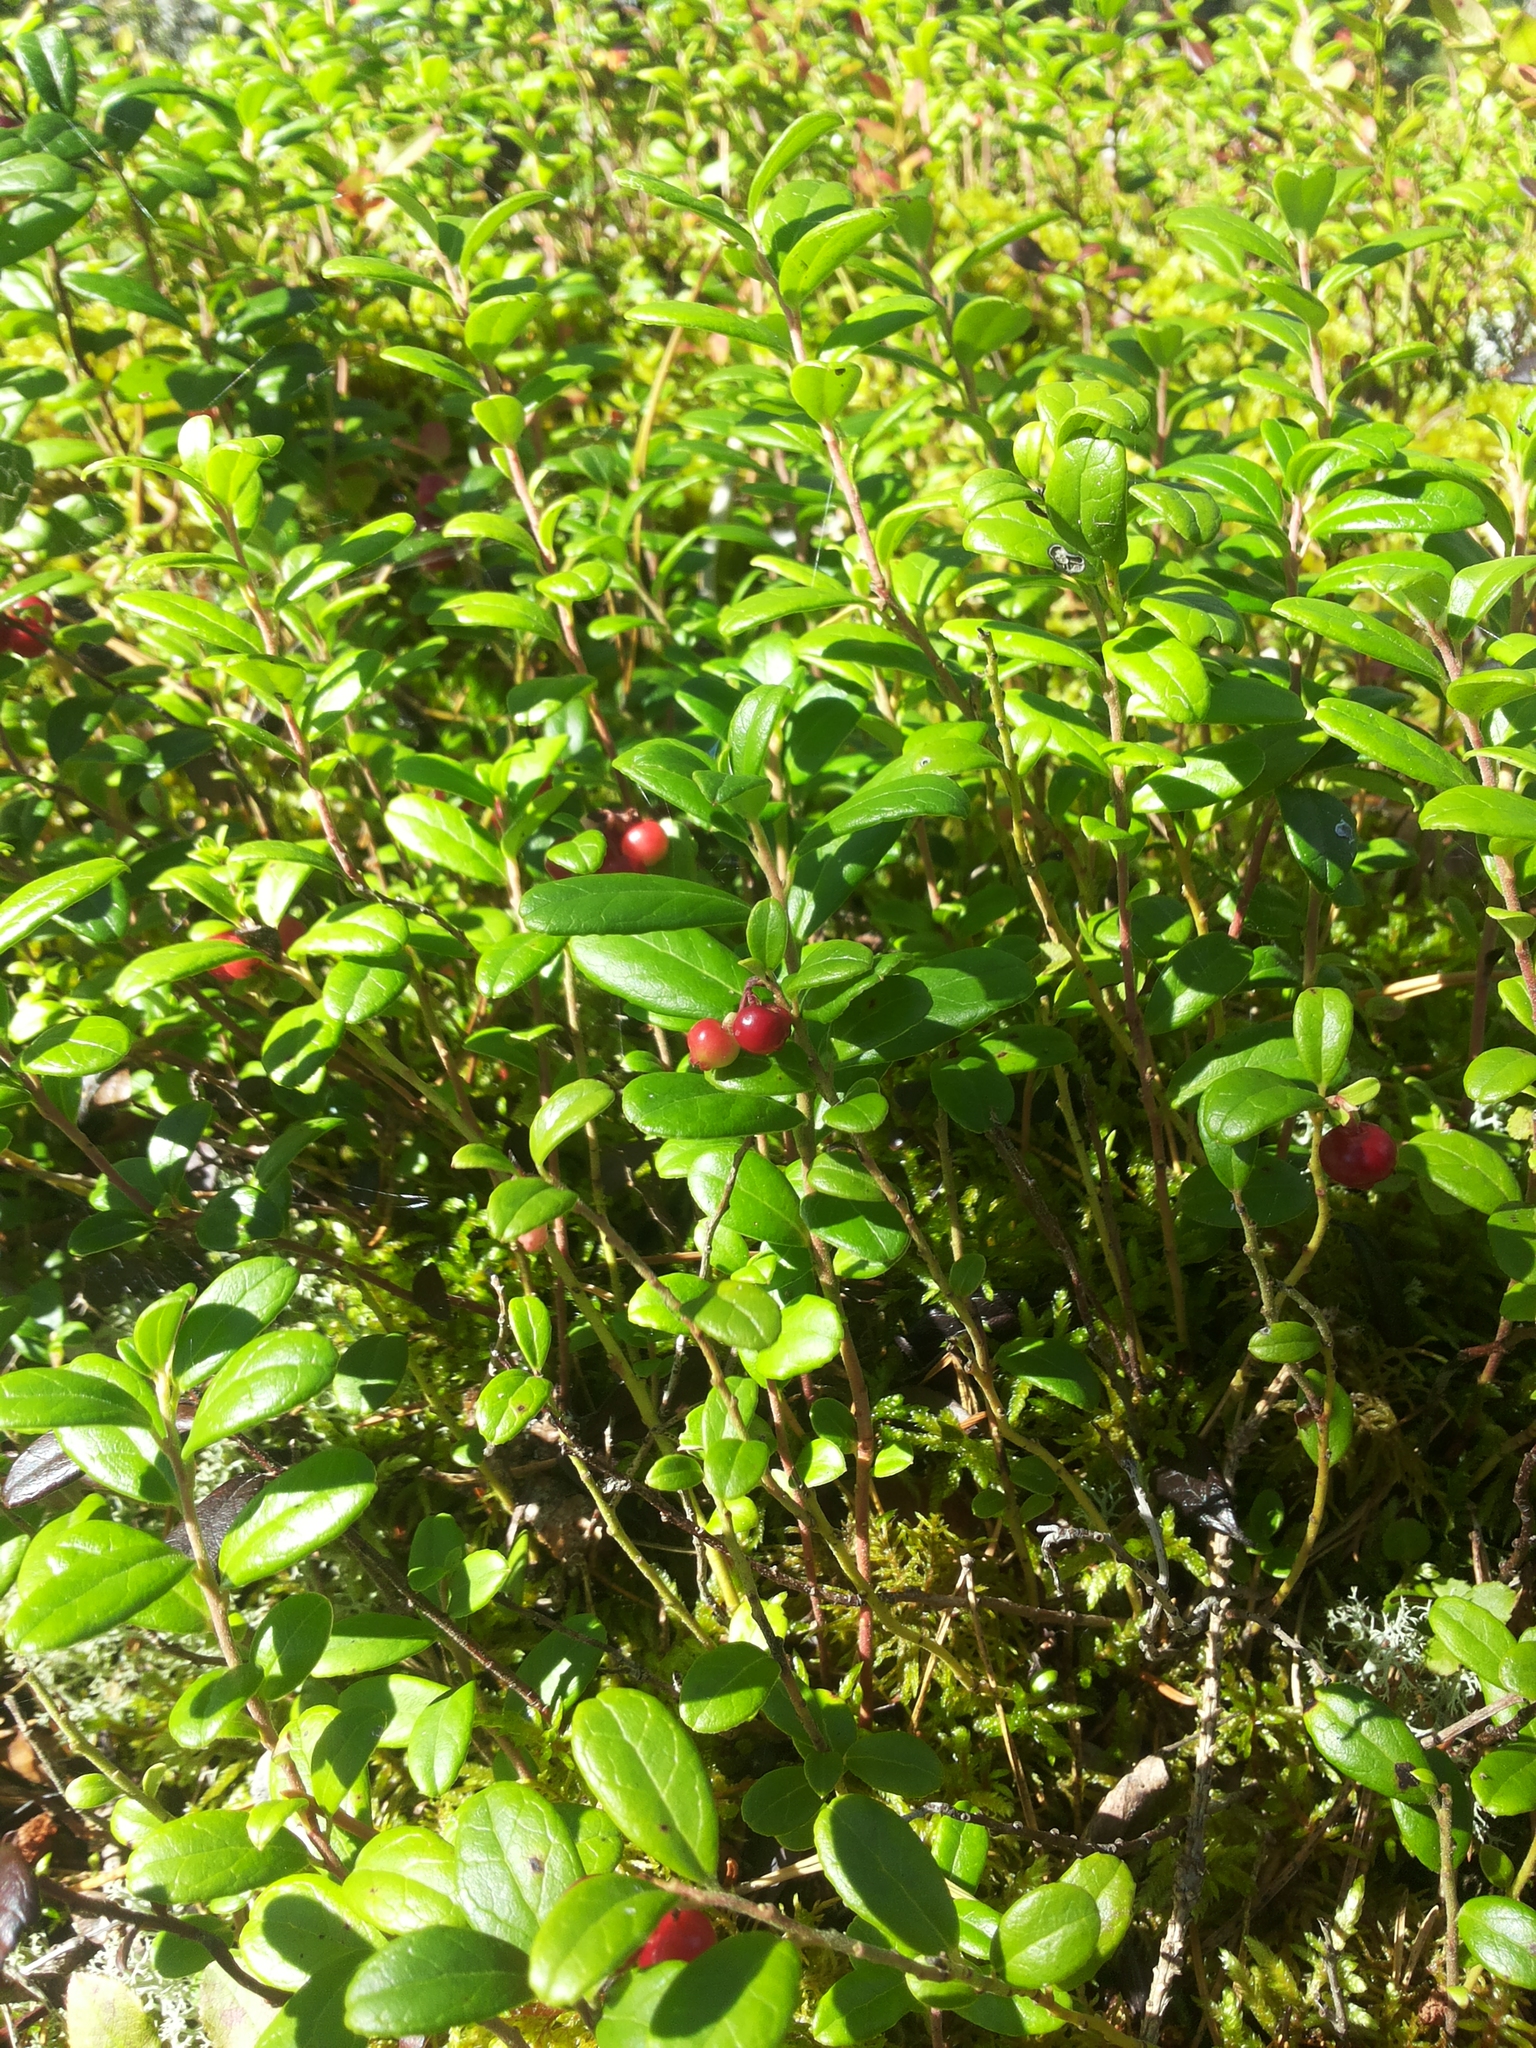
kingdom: Plantae
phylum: Tracheophyta
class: Magnoliopsida
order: Ericales
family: Ericaceae
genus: Vaccinium
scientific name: Vaccinium vitis-idaea
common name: Cowberry
